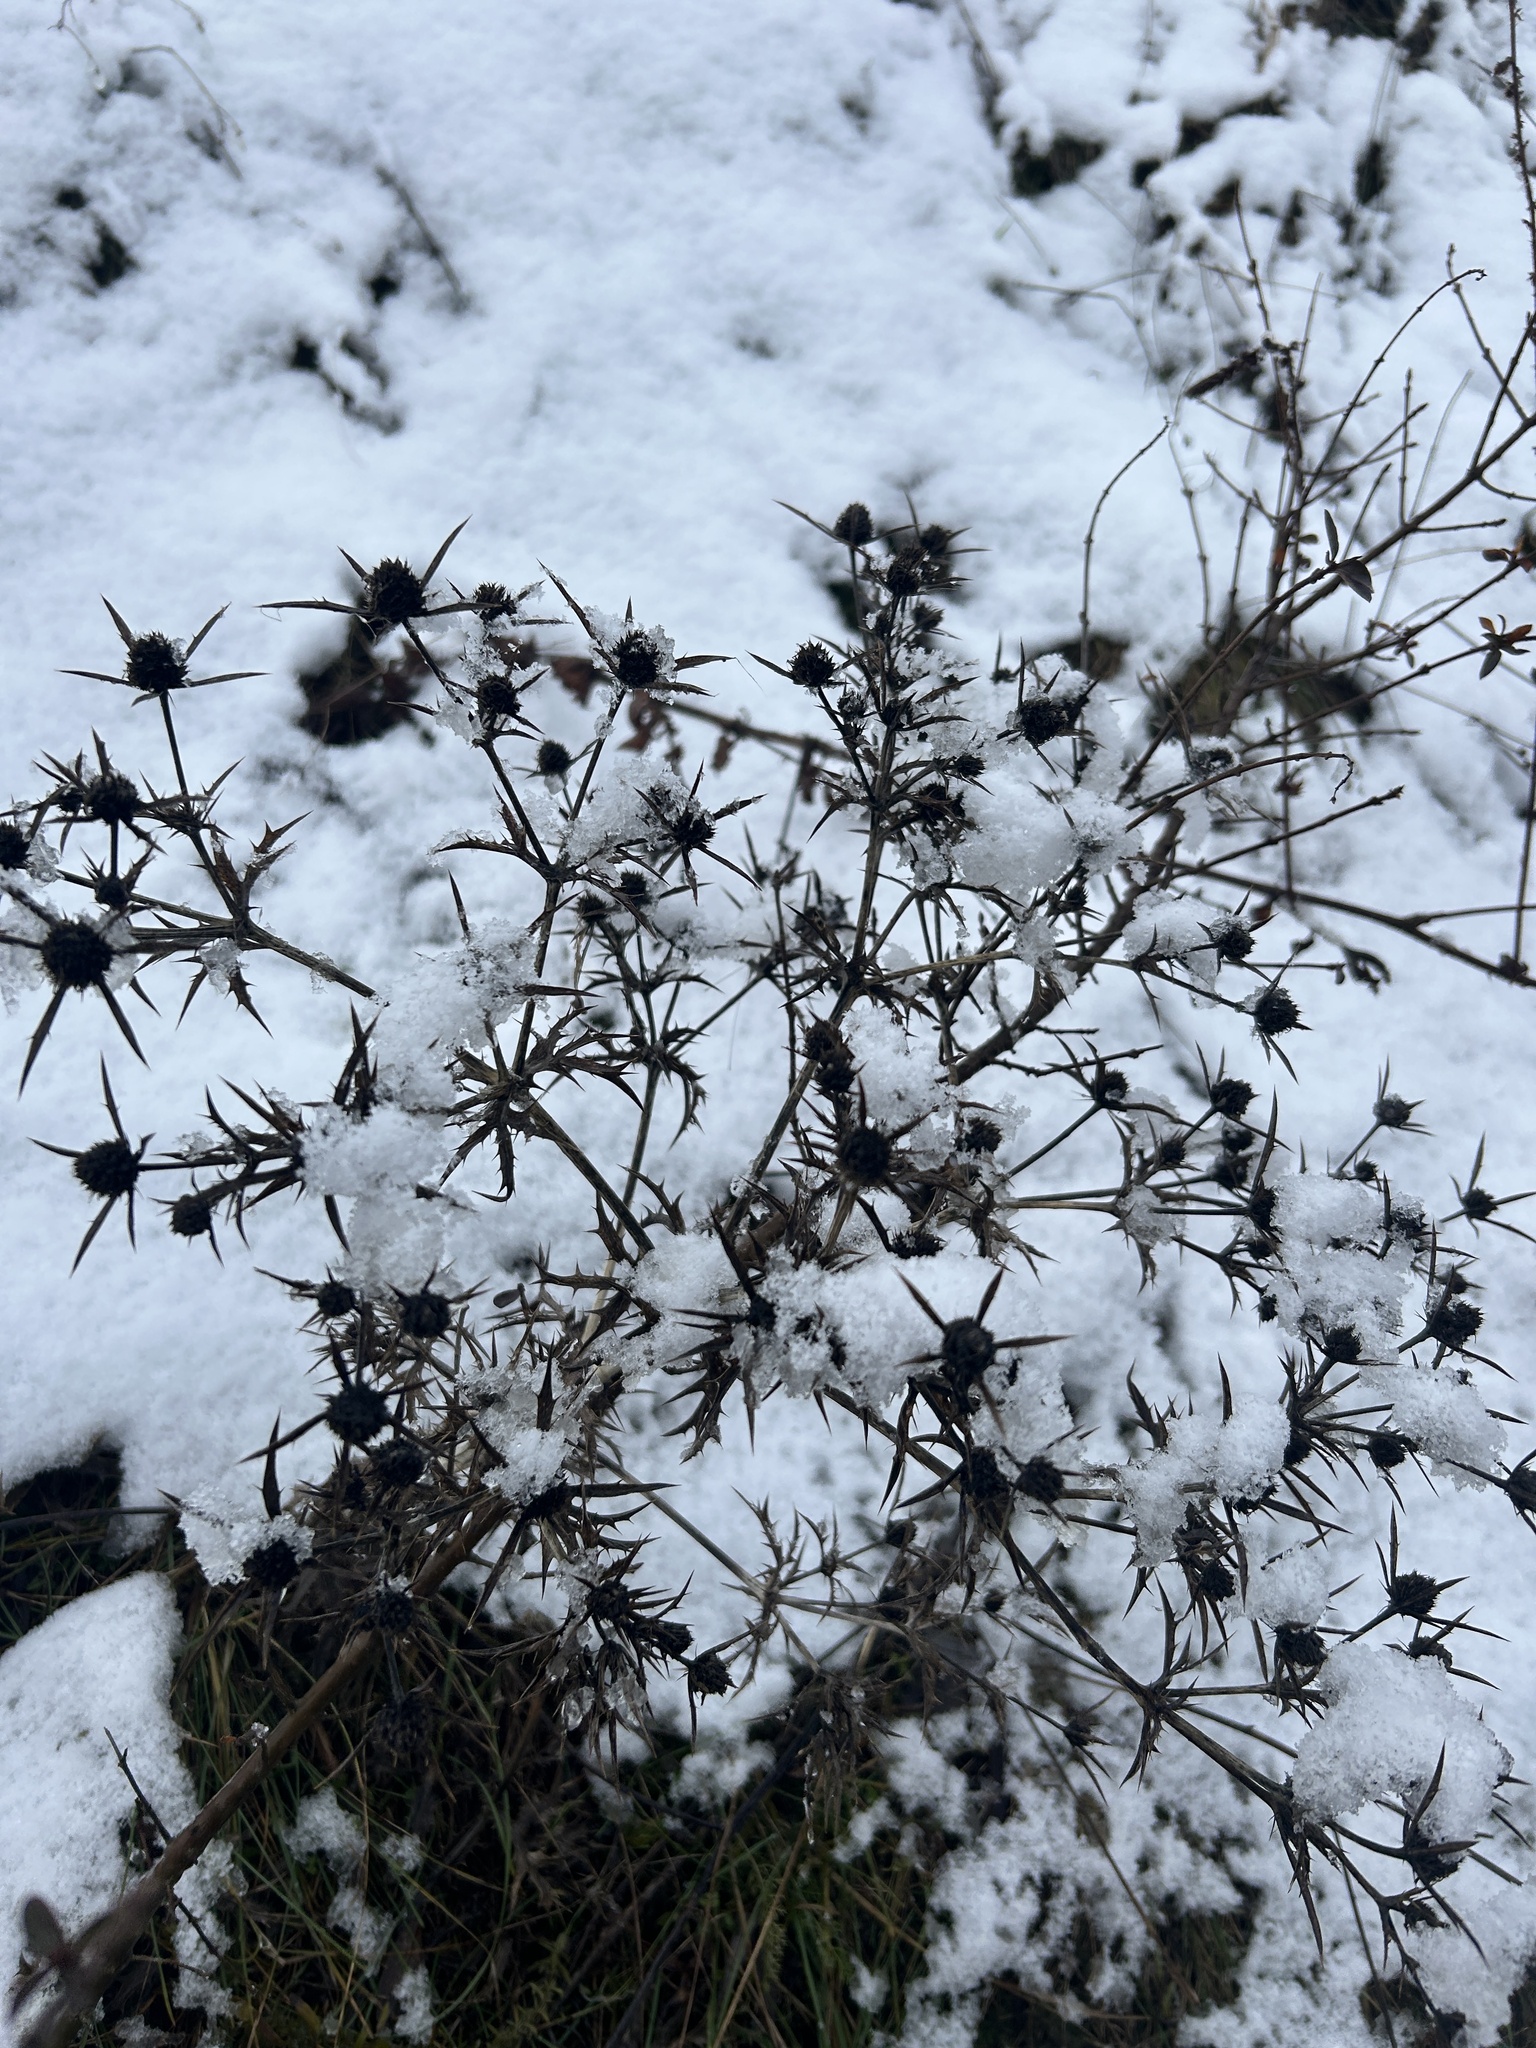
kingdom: Plantae
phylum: Tracheophyta
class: Magnoliopsida
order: Apiales
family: Apiaceae
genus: Eryngium
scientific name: Eryngium campestre
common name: Field eryngo
